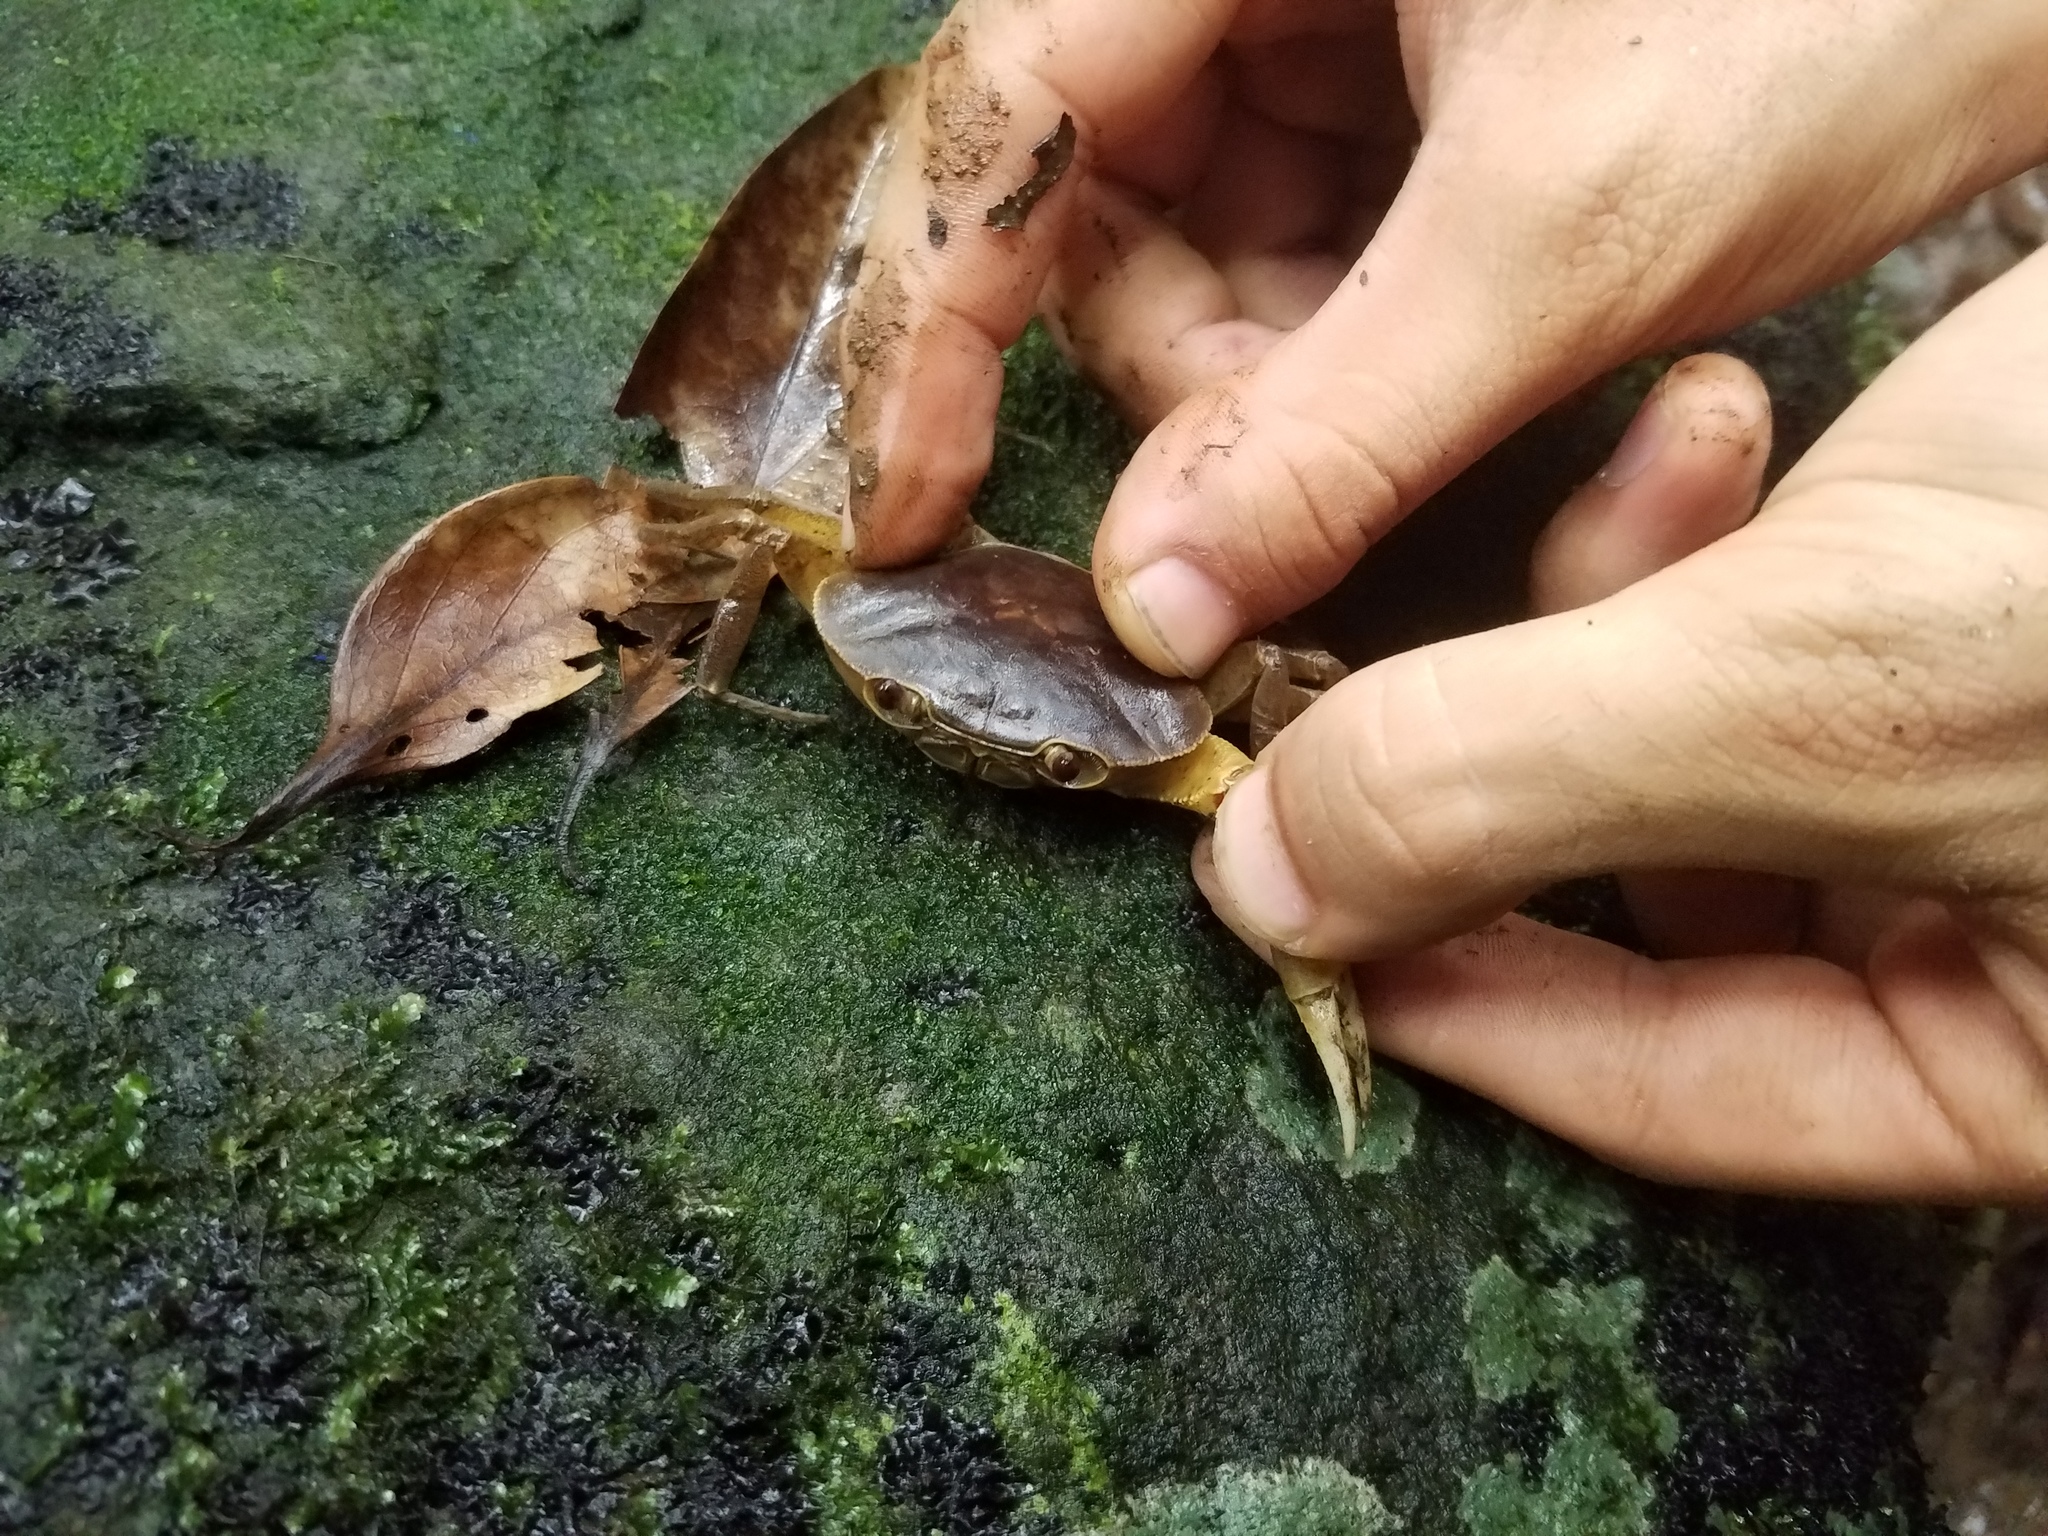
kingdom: Animalia
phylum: Arthropoda
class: Malacostraca
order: Decapoda
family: Pseudothelphusidae
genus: Odontothelphusa
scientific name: Odontothelphusa maxillipes
